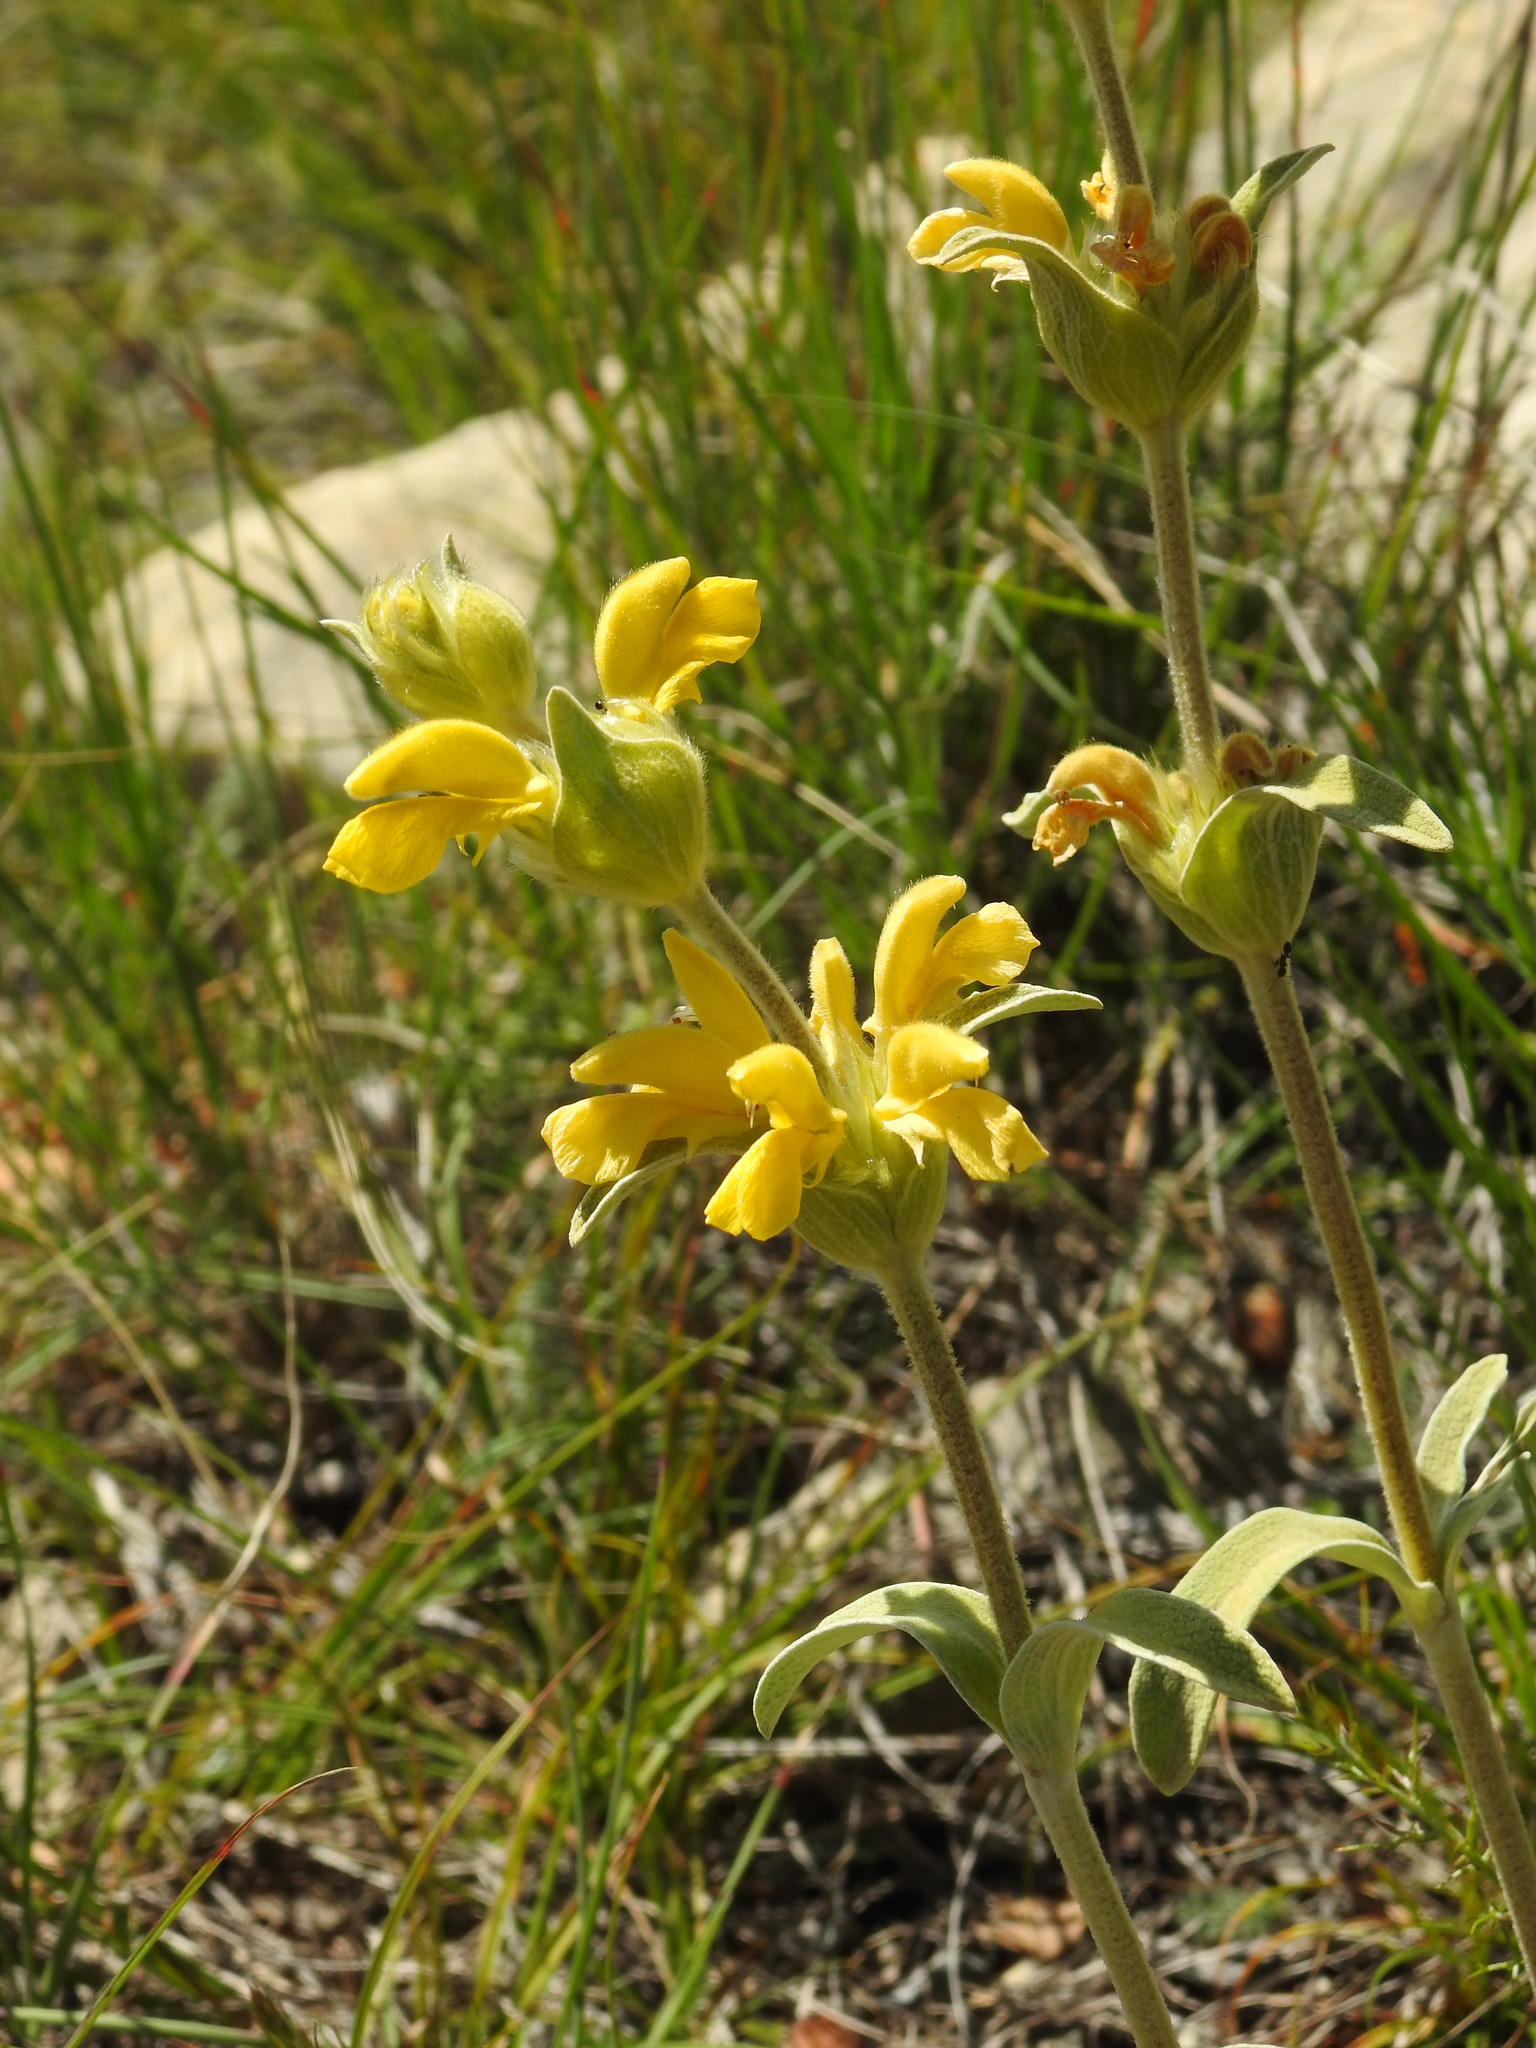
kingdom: Plantae
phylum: Tracheophyta
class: Magnoliopsida
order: Lamiales
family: Lamiaceae
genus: Phlomis
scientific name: Phlomis lychnitis
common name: Lampwickplant
